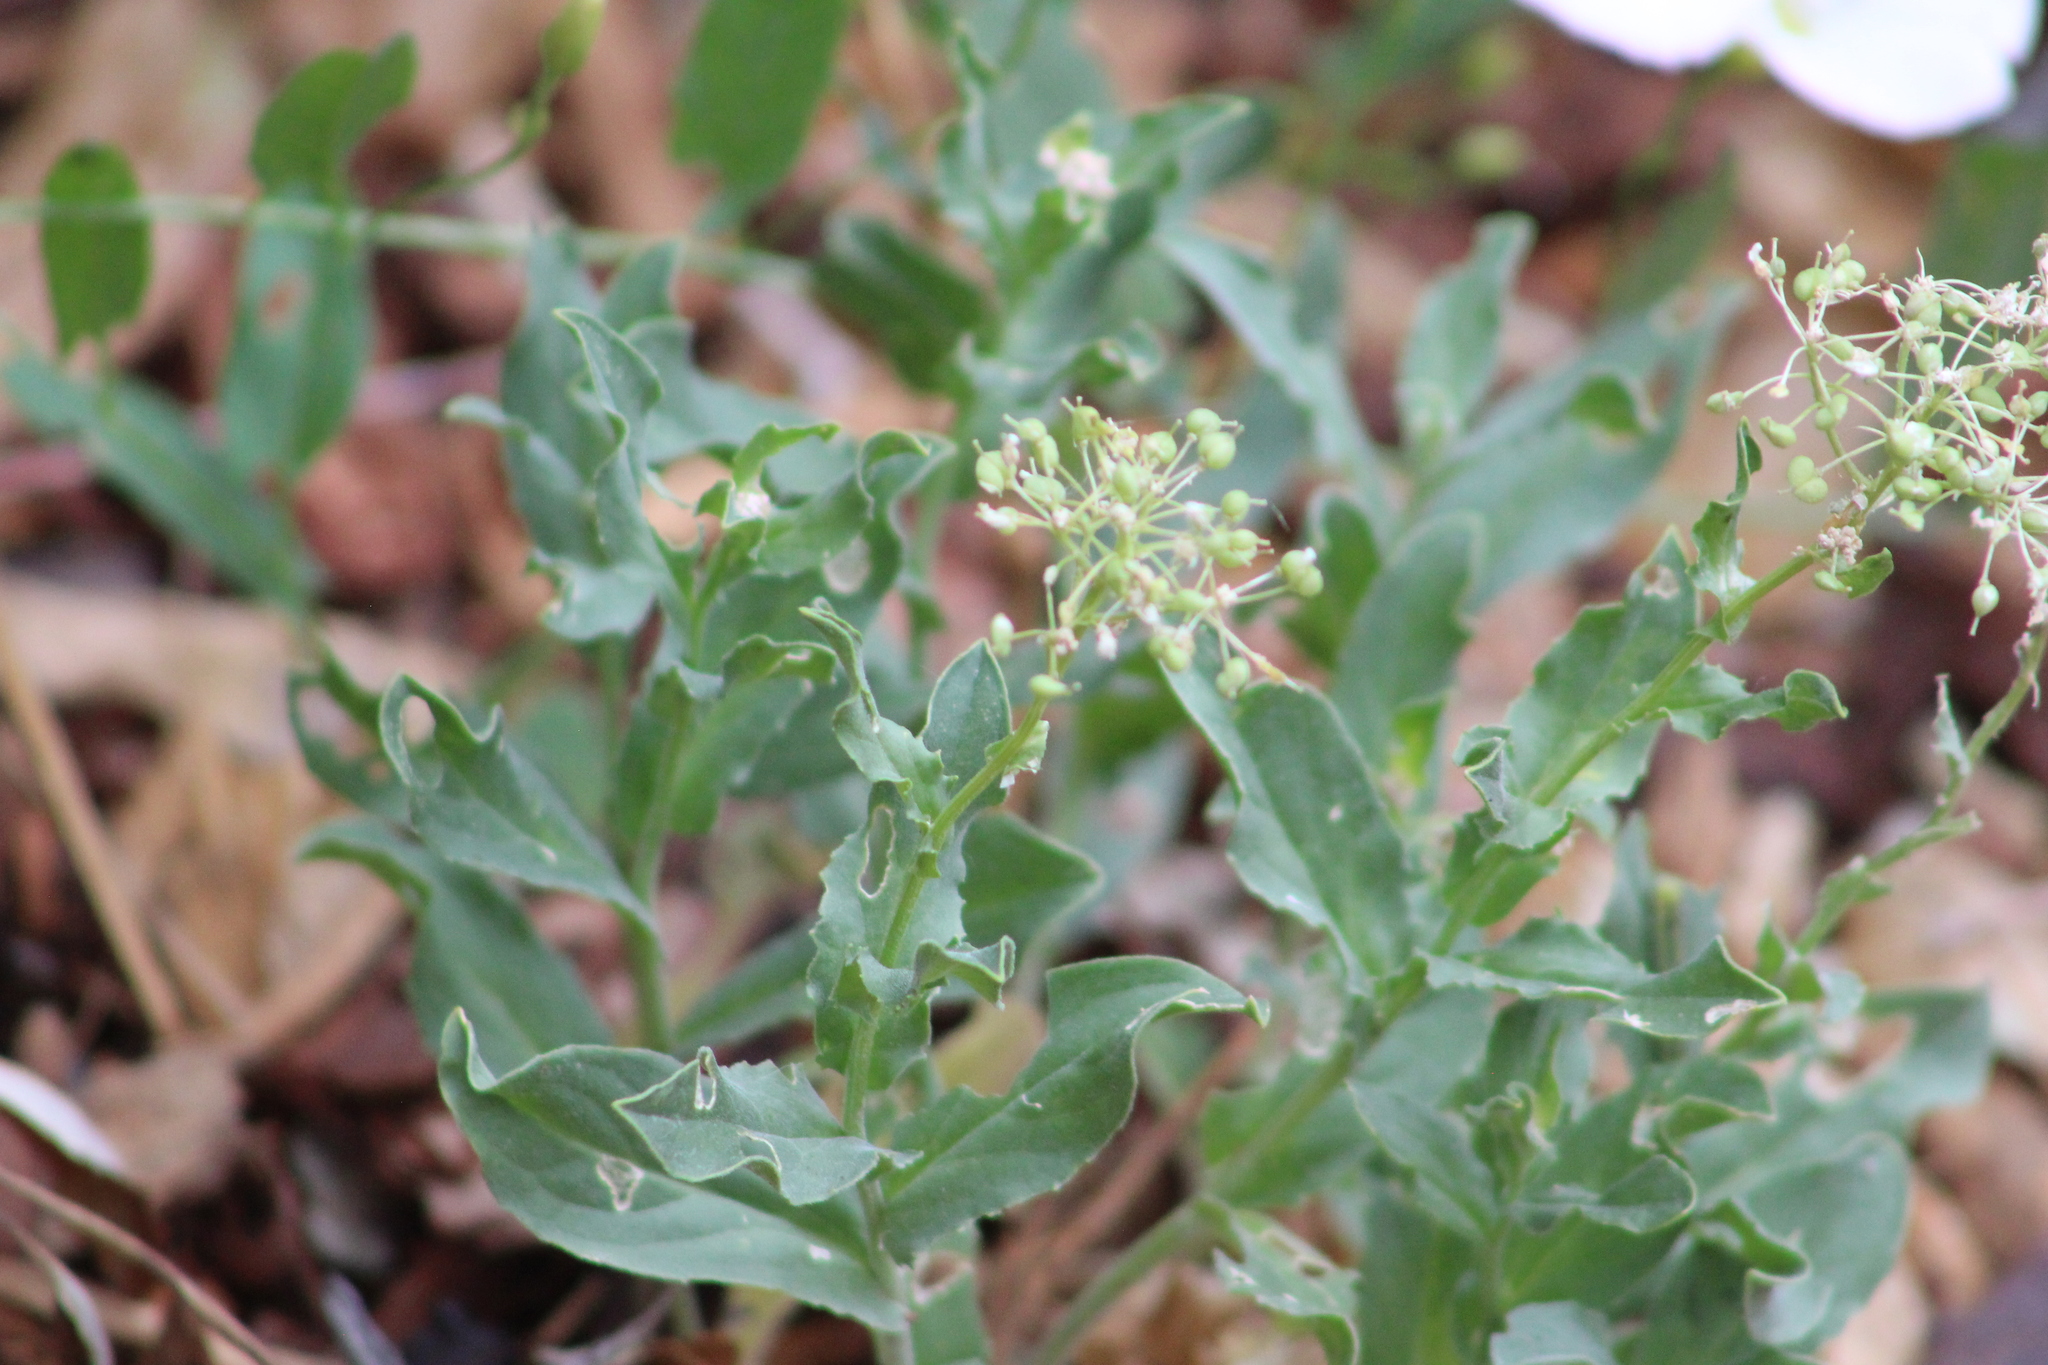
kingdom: Plantae
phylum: Tracheophyta
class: Magnoliopsida
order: Solanales
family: Convolvulaceae
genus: Convolvulus
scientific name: Convolvulus arvensis
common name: Field bindweed
